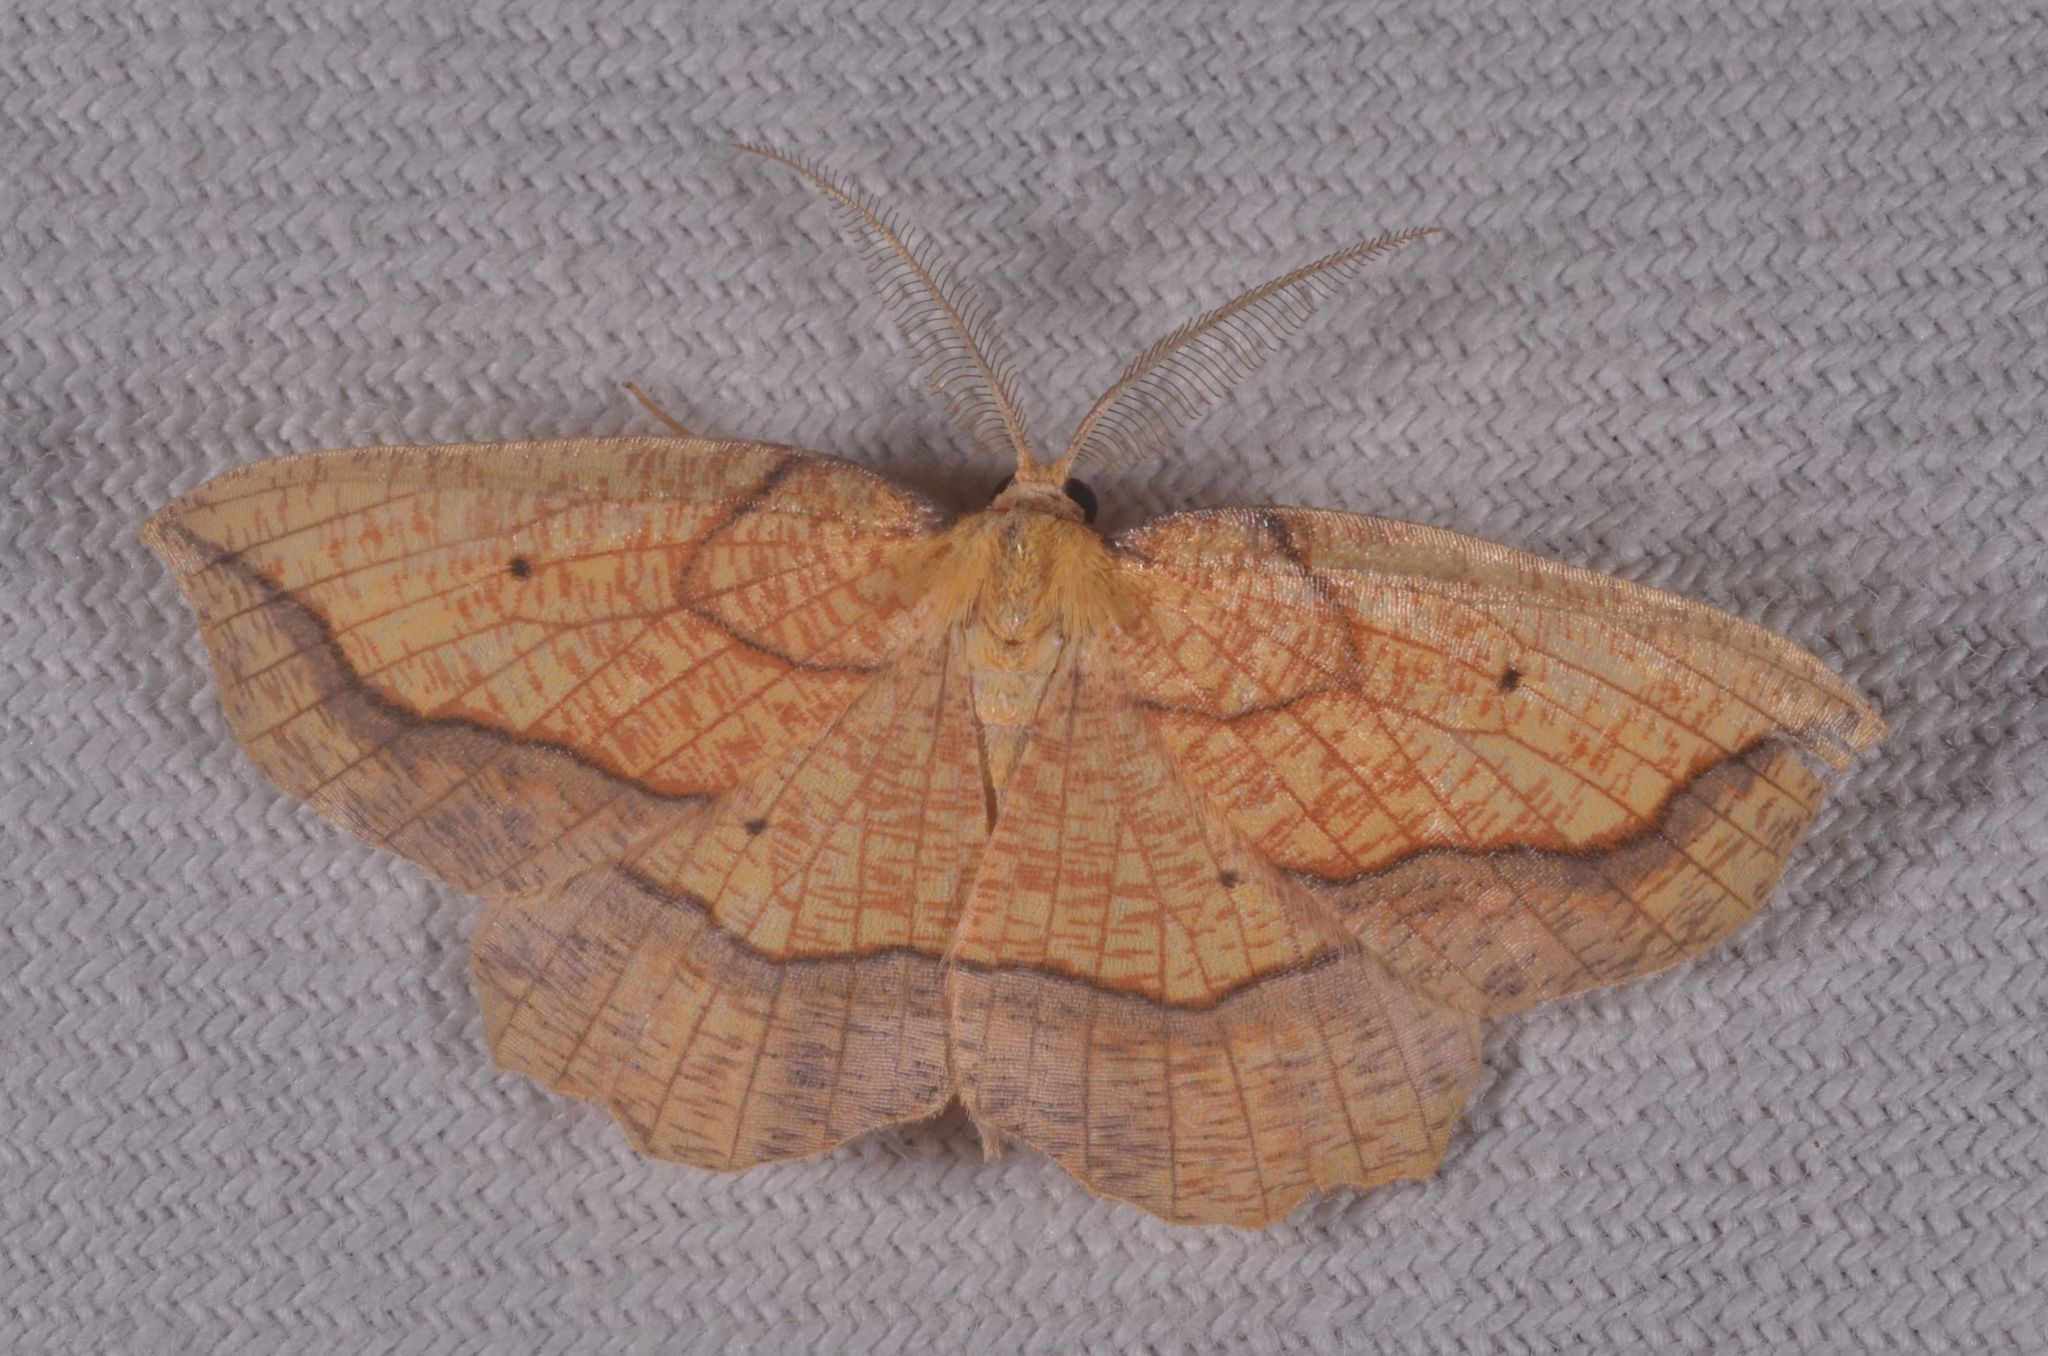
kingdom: Animalia
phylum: Arthropoda
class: Insecta
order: Lepidoptera
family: Geometridae
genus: Epione
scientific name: Epione repandaria
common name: Bordered beauty
